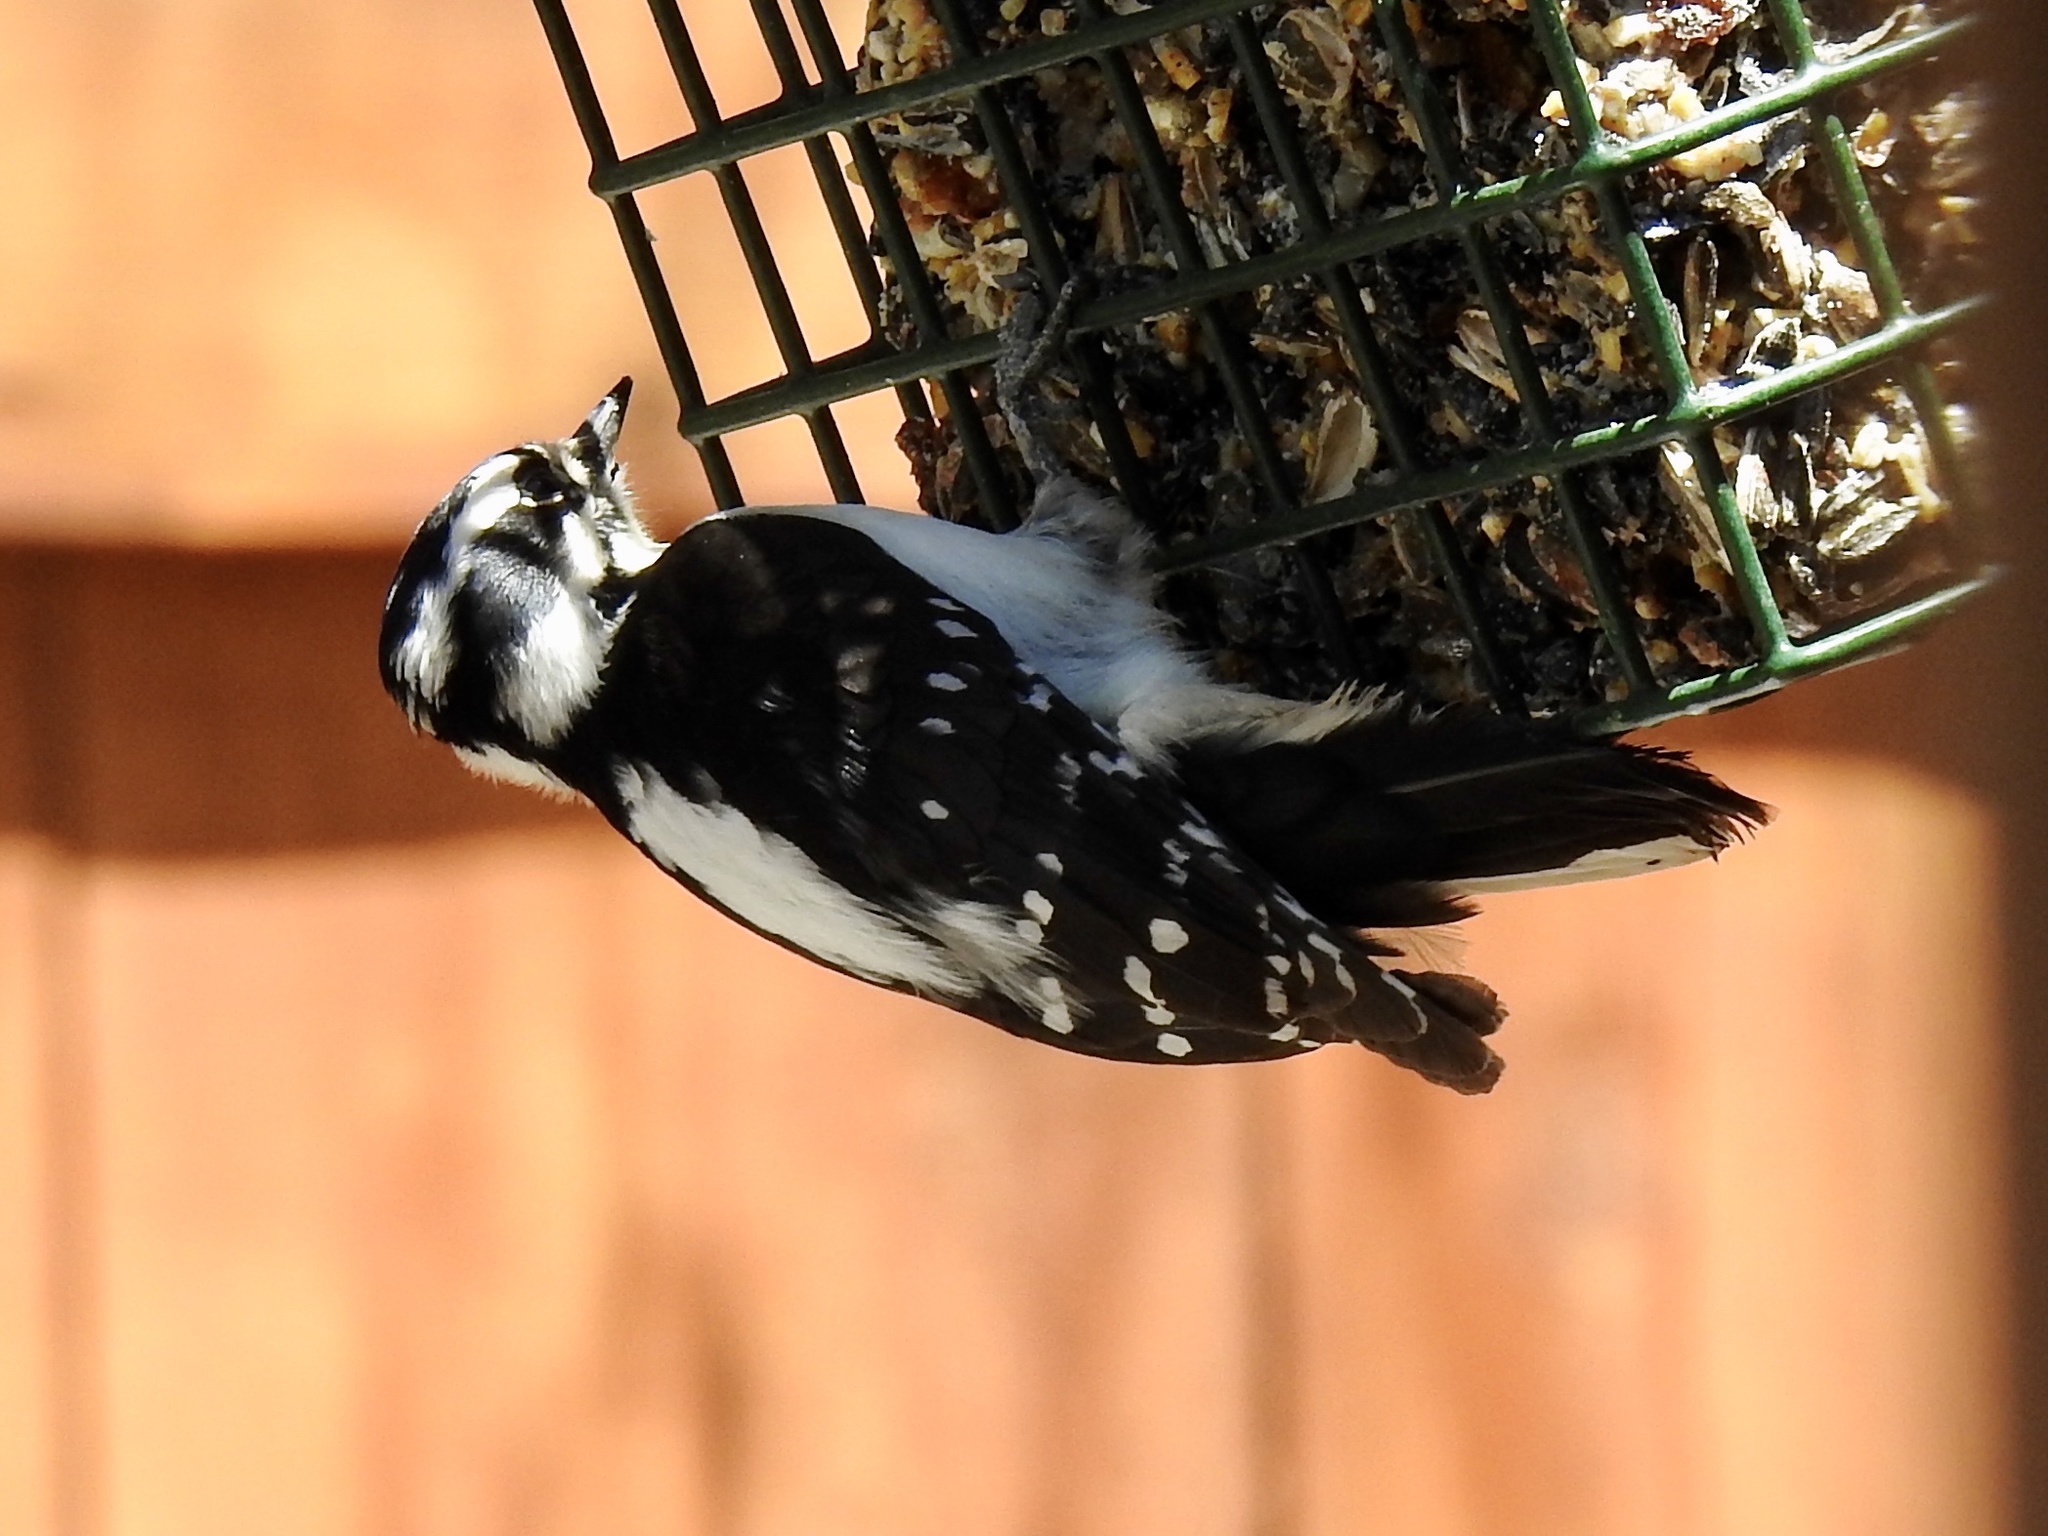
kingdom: Animalia
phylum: Chordata
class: Aves
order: Piciformes
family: Picidae
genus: Leuconotopicus
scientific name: Leuconotopicus villosus
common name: Hairy woodpecker
